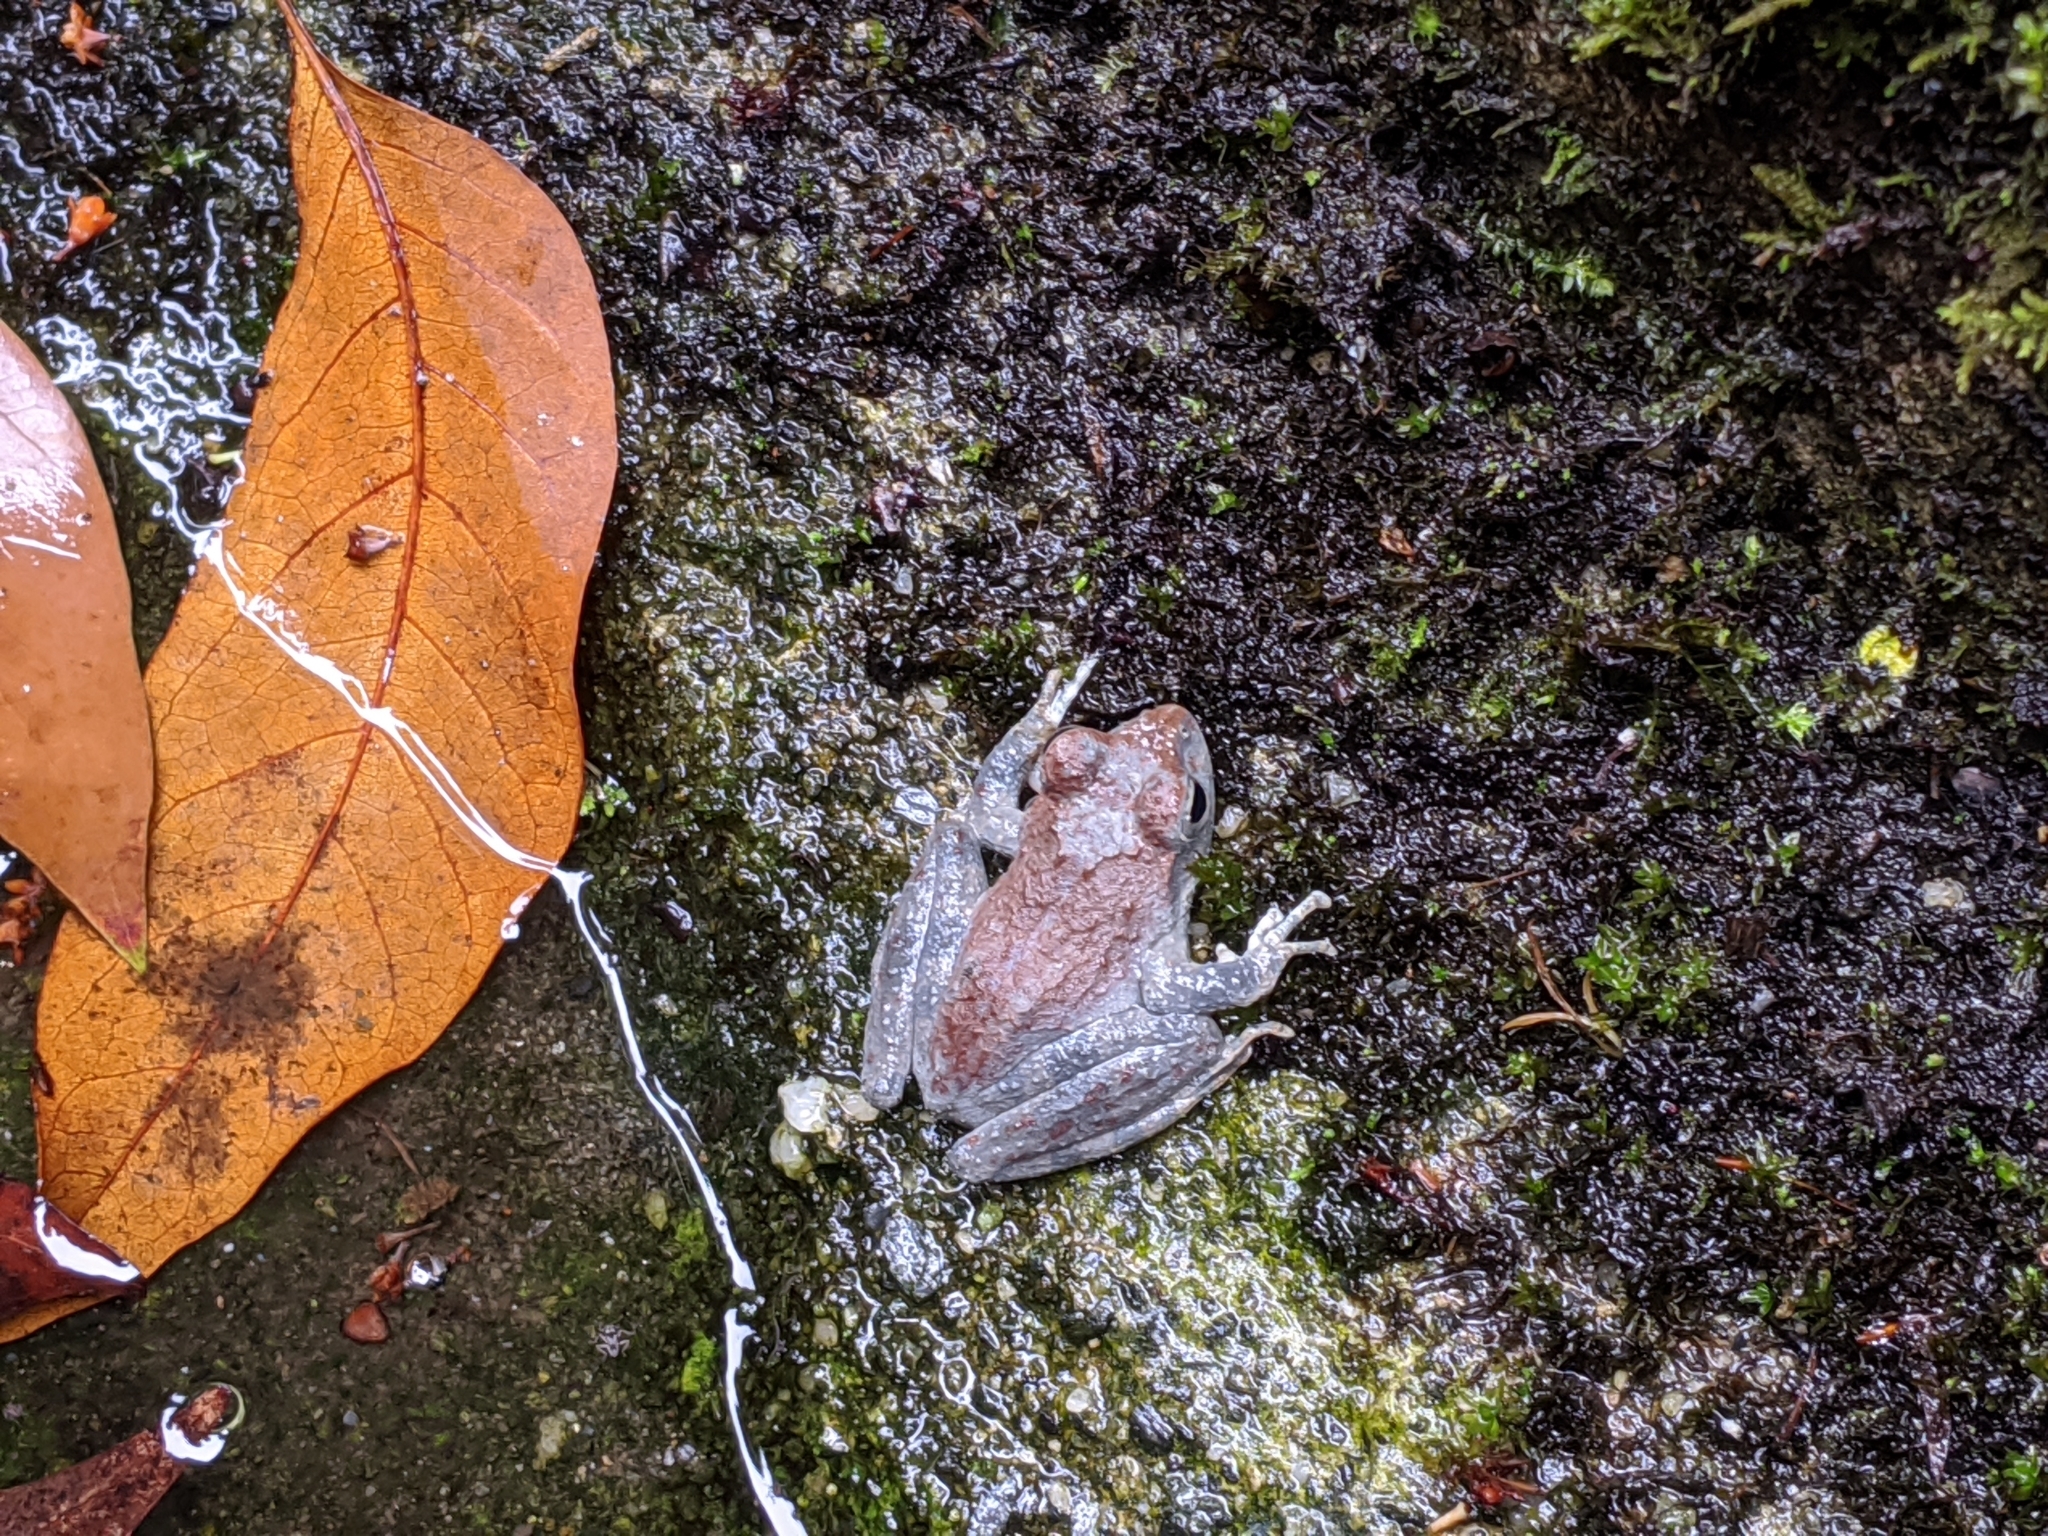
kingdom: Animalia
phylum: Chordata
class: Amphibia
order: Anura
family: Rhacophoridae
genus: Buergeria
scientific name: Buergeria otai
